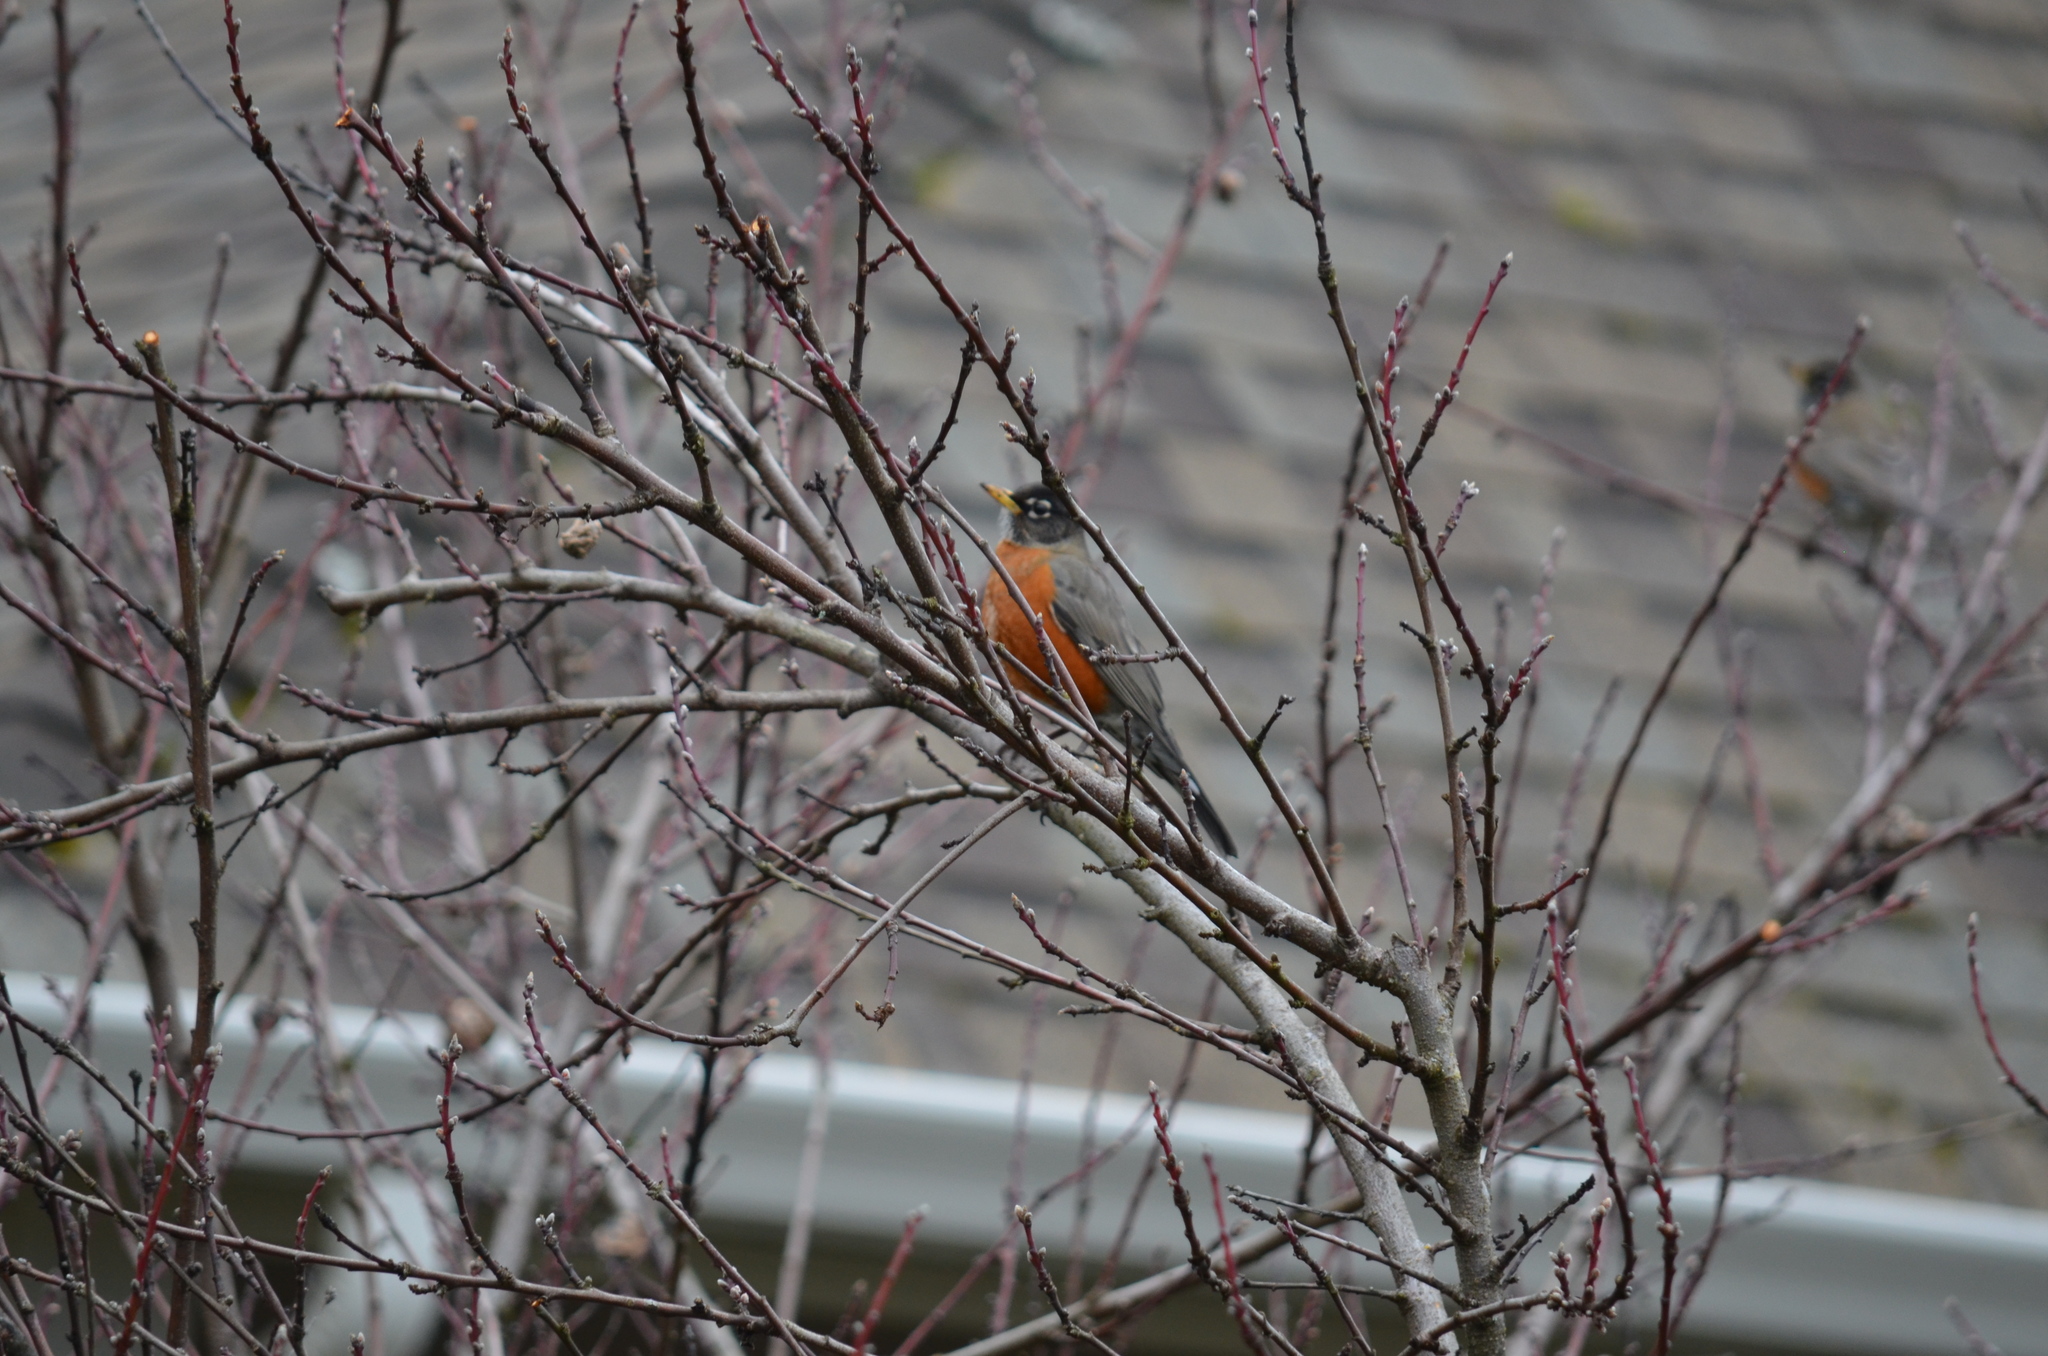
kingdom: Animalia
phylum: Chordata
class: Aves
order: Passeriformes
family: Turdidae
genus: Turdus
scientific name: Turdus migratorius
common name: American robin
